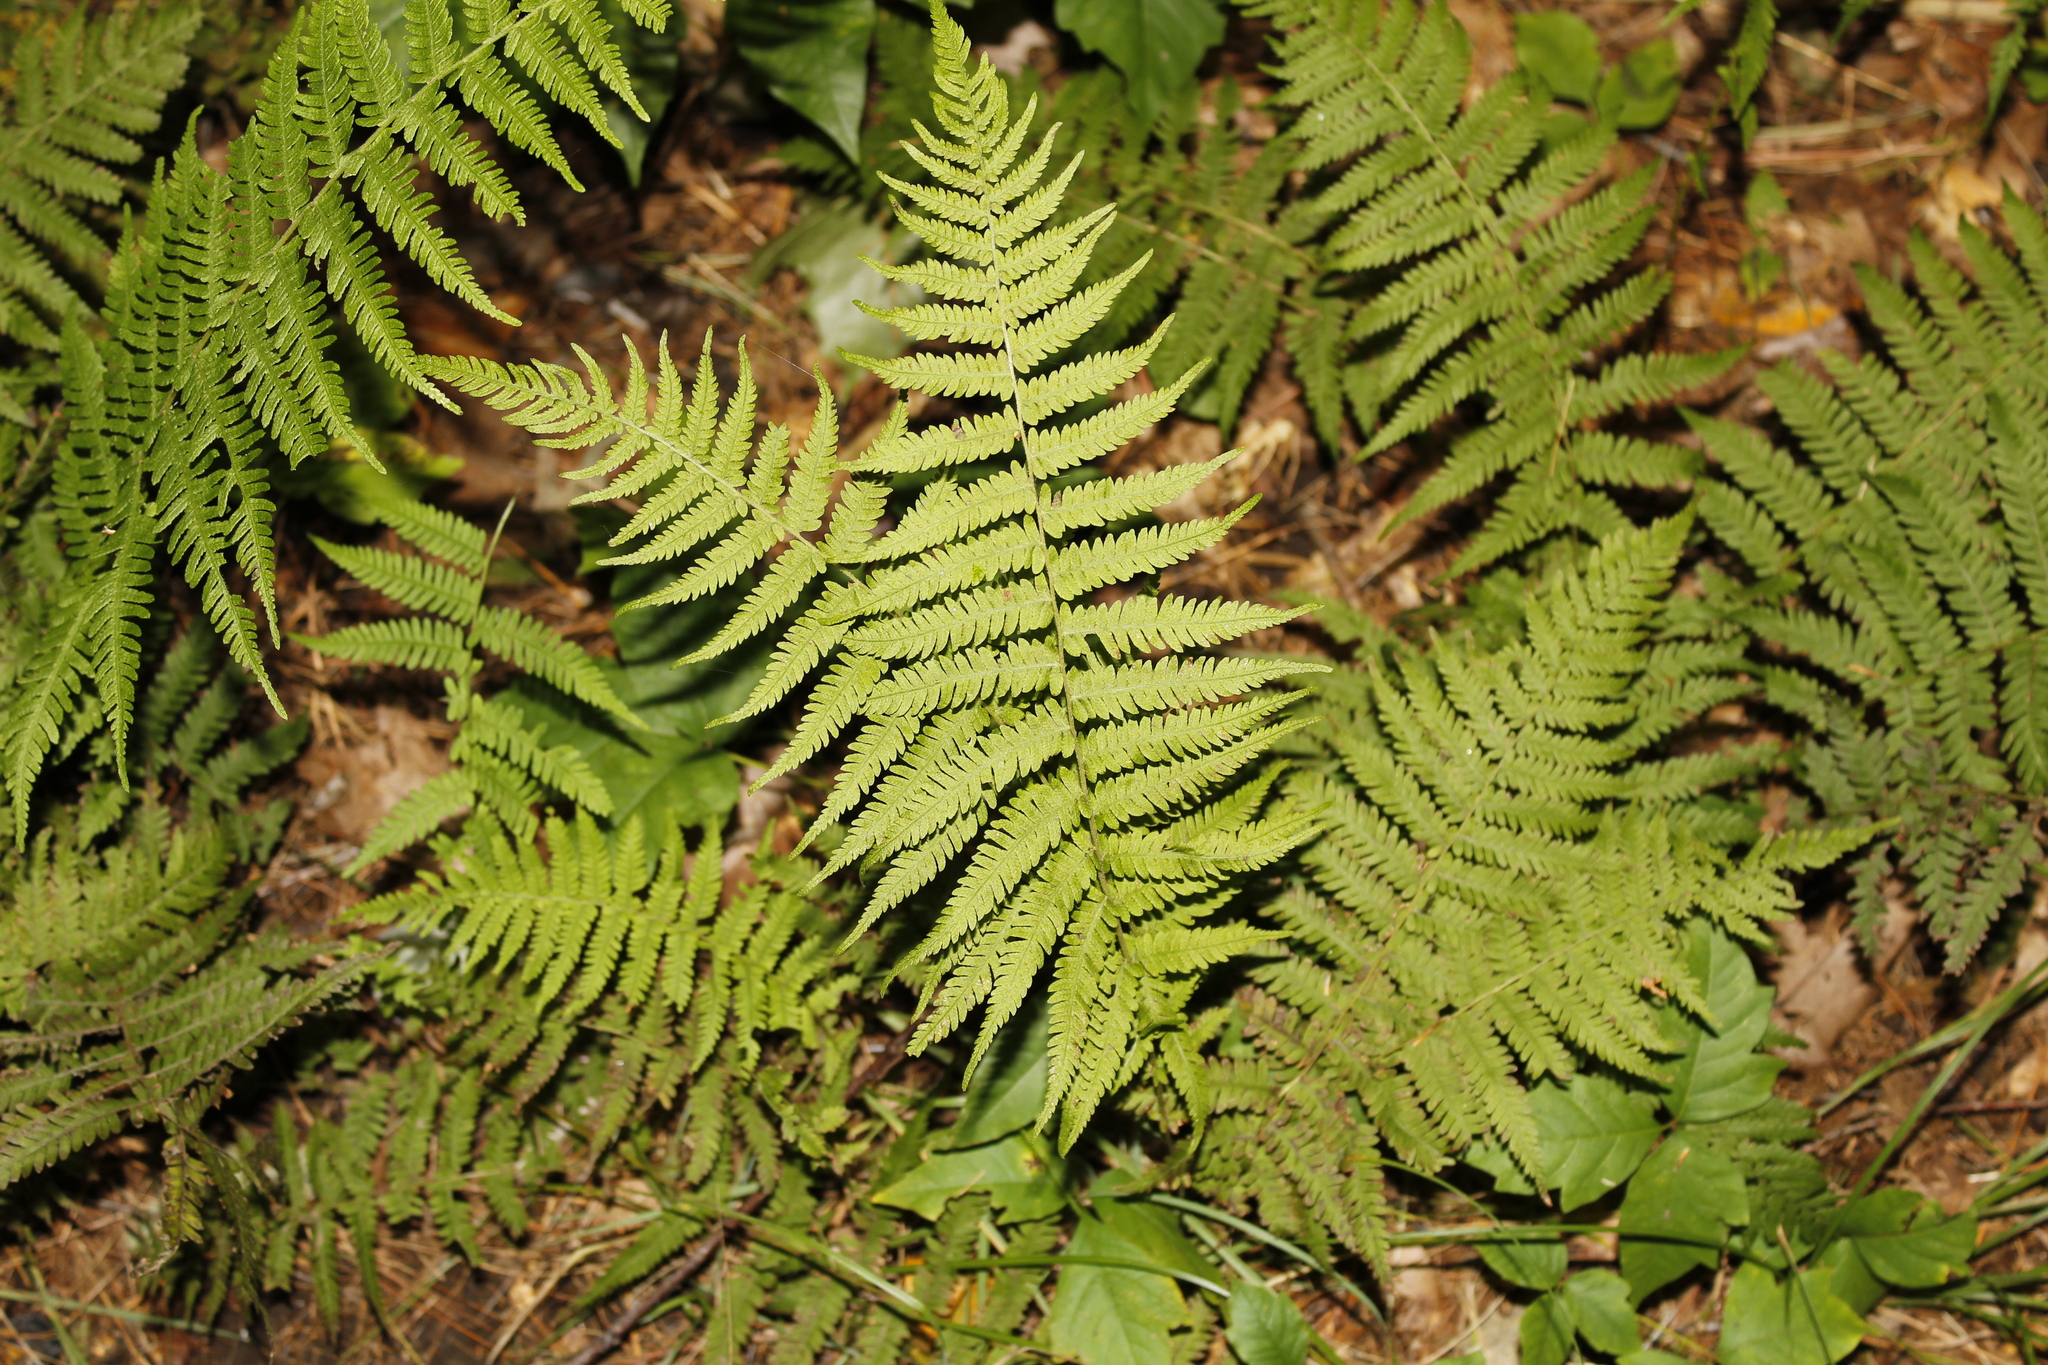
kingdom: Plantae
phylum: Tracheophyta
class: Polypodiopsida
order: Polypodiales
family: Thelypteridaceae
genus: Amauropelta
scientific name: Amauropelta noveboracensis
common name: New york fern
